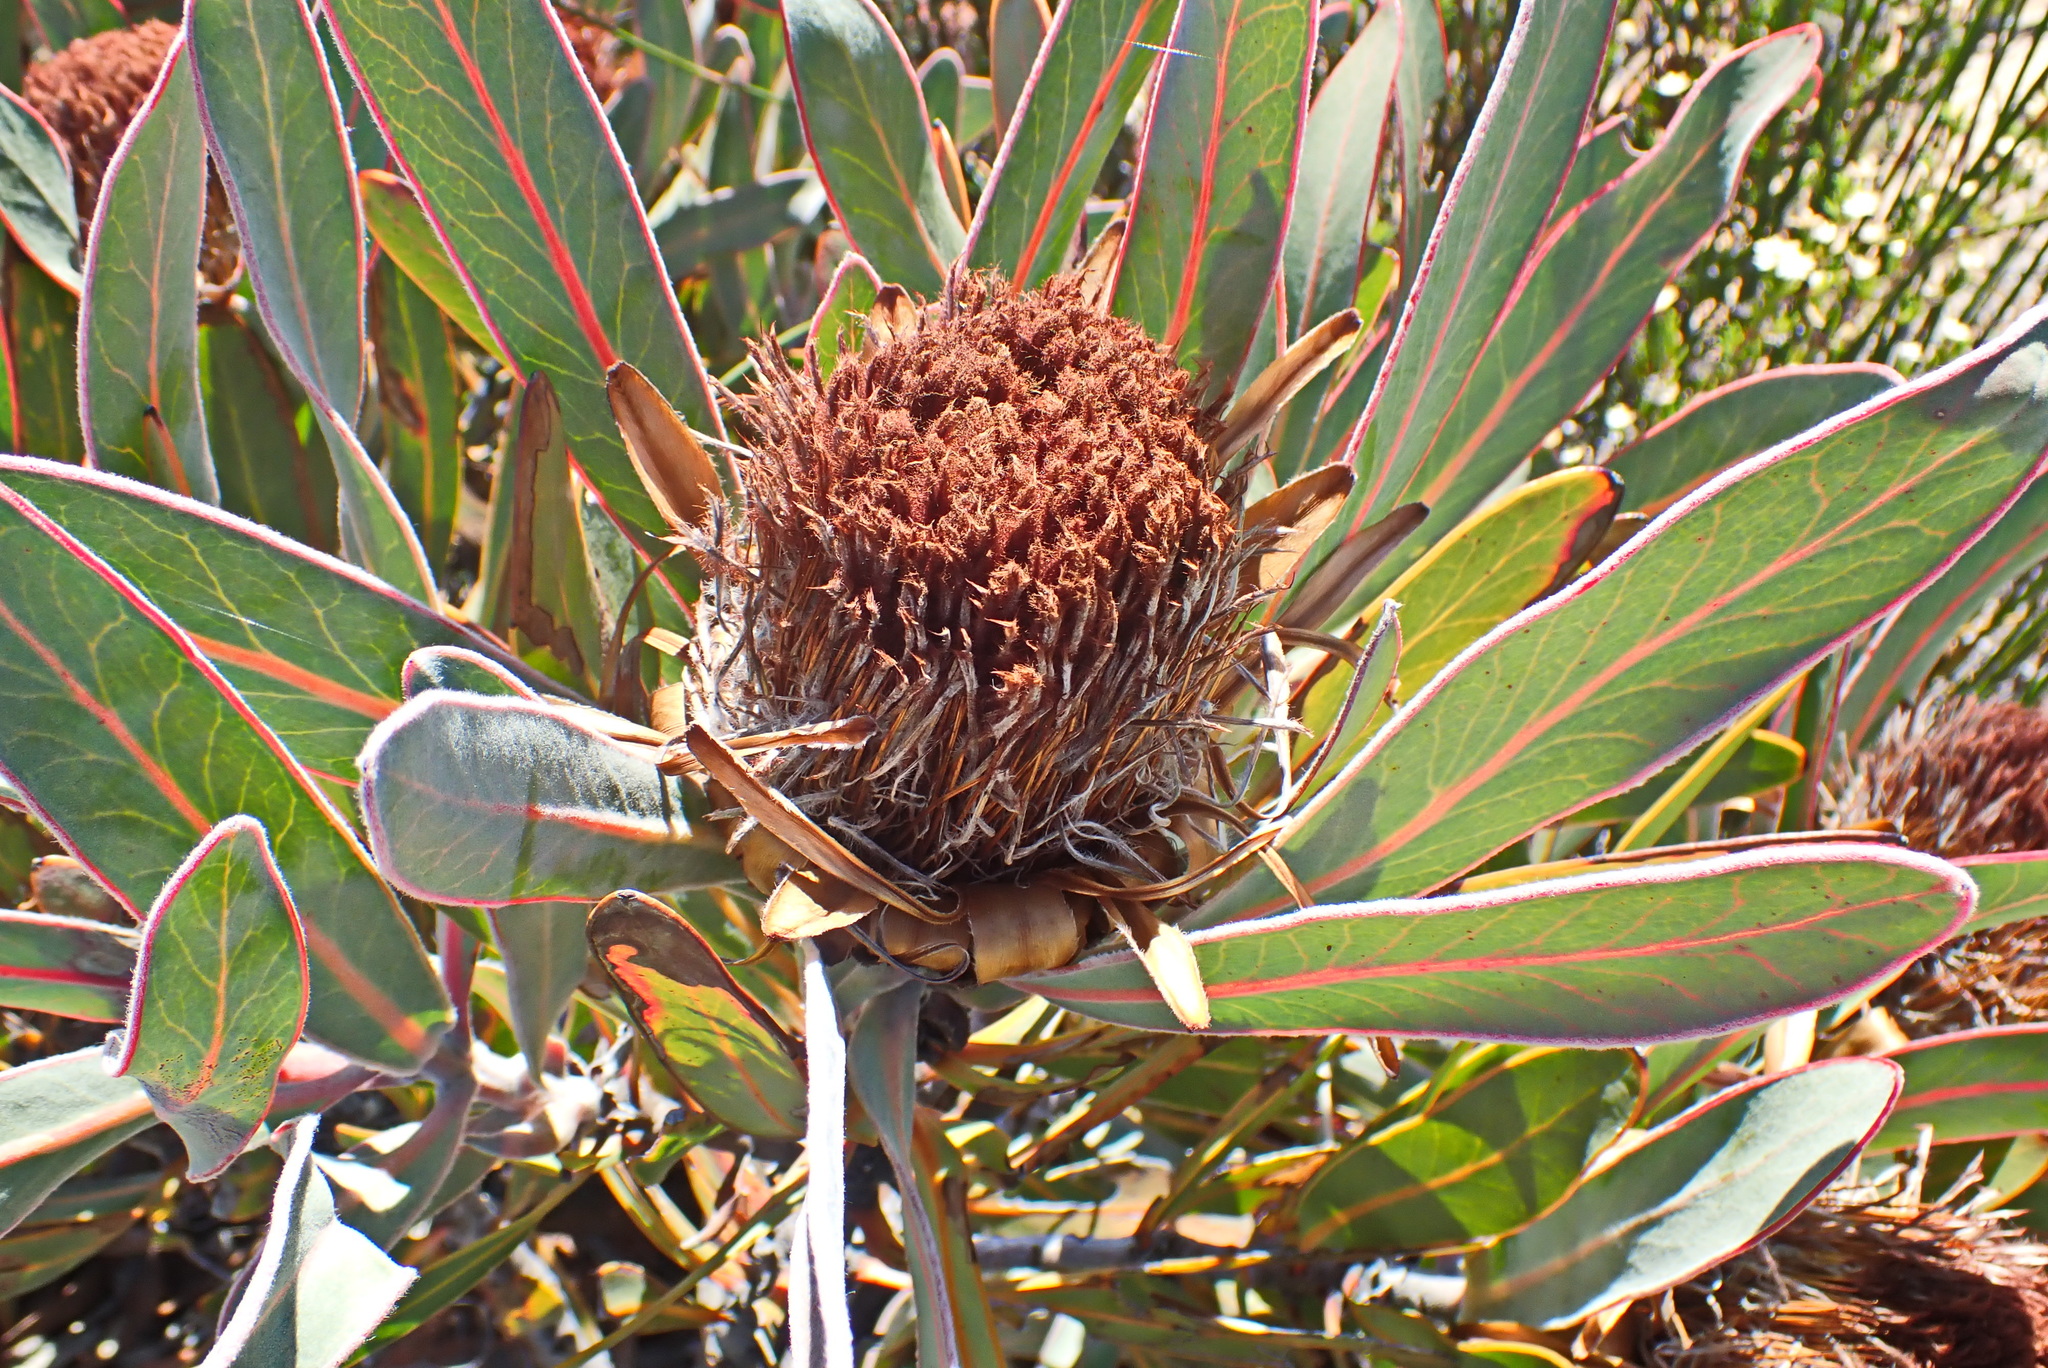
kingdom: Plantae
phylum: Tracheophyta
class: Magnoliopsida
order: Proteales
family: Proteaceae
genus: Protea
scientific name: Protea lorifolia
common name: Strap-leaved protea
